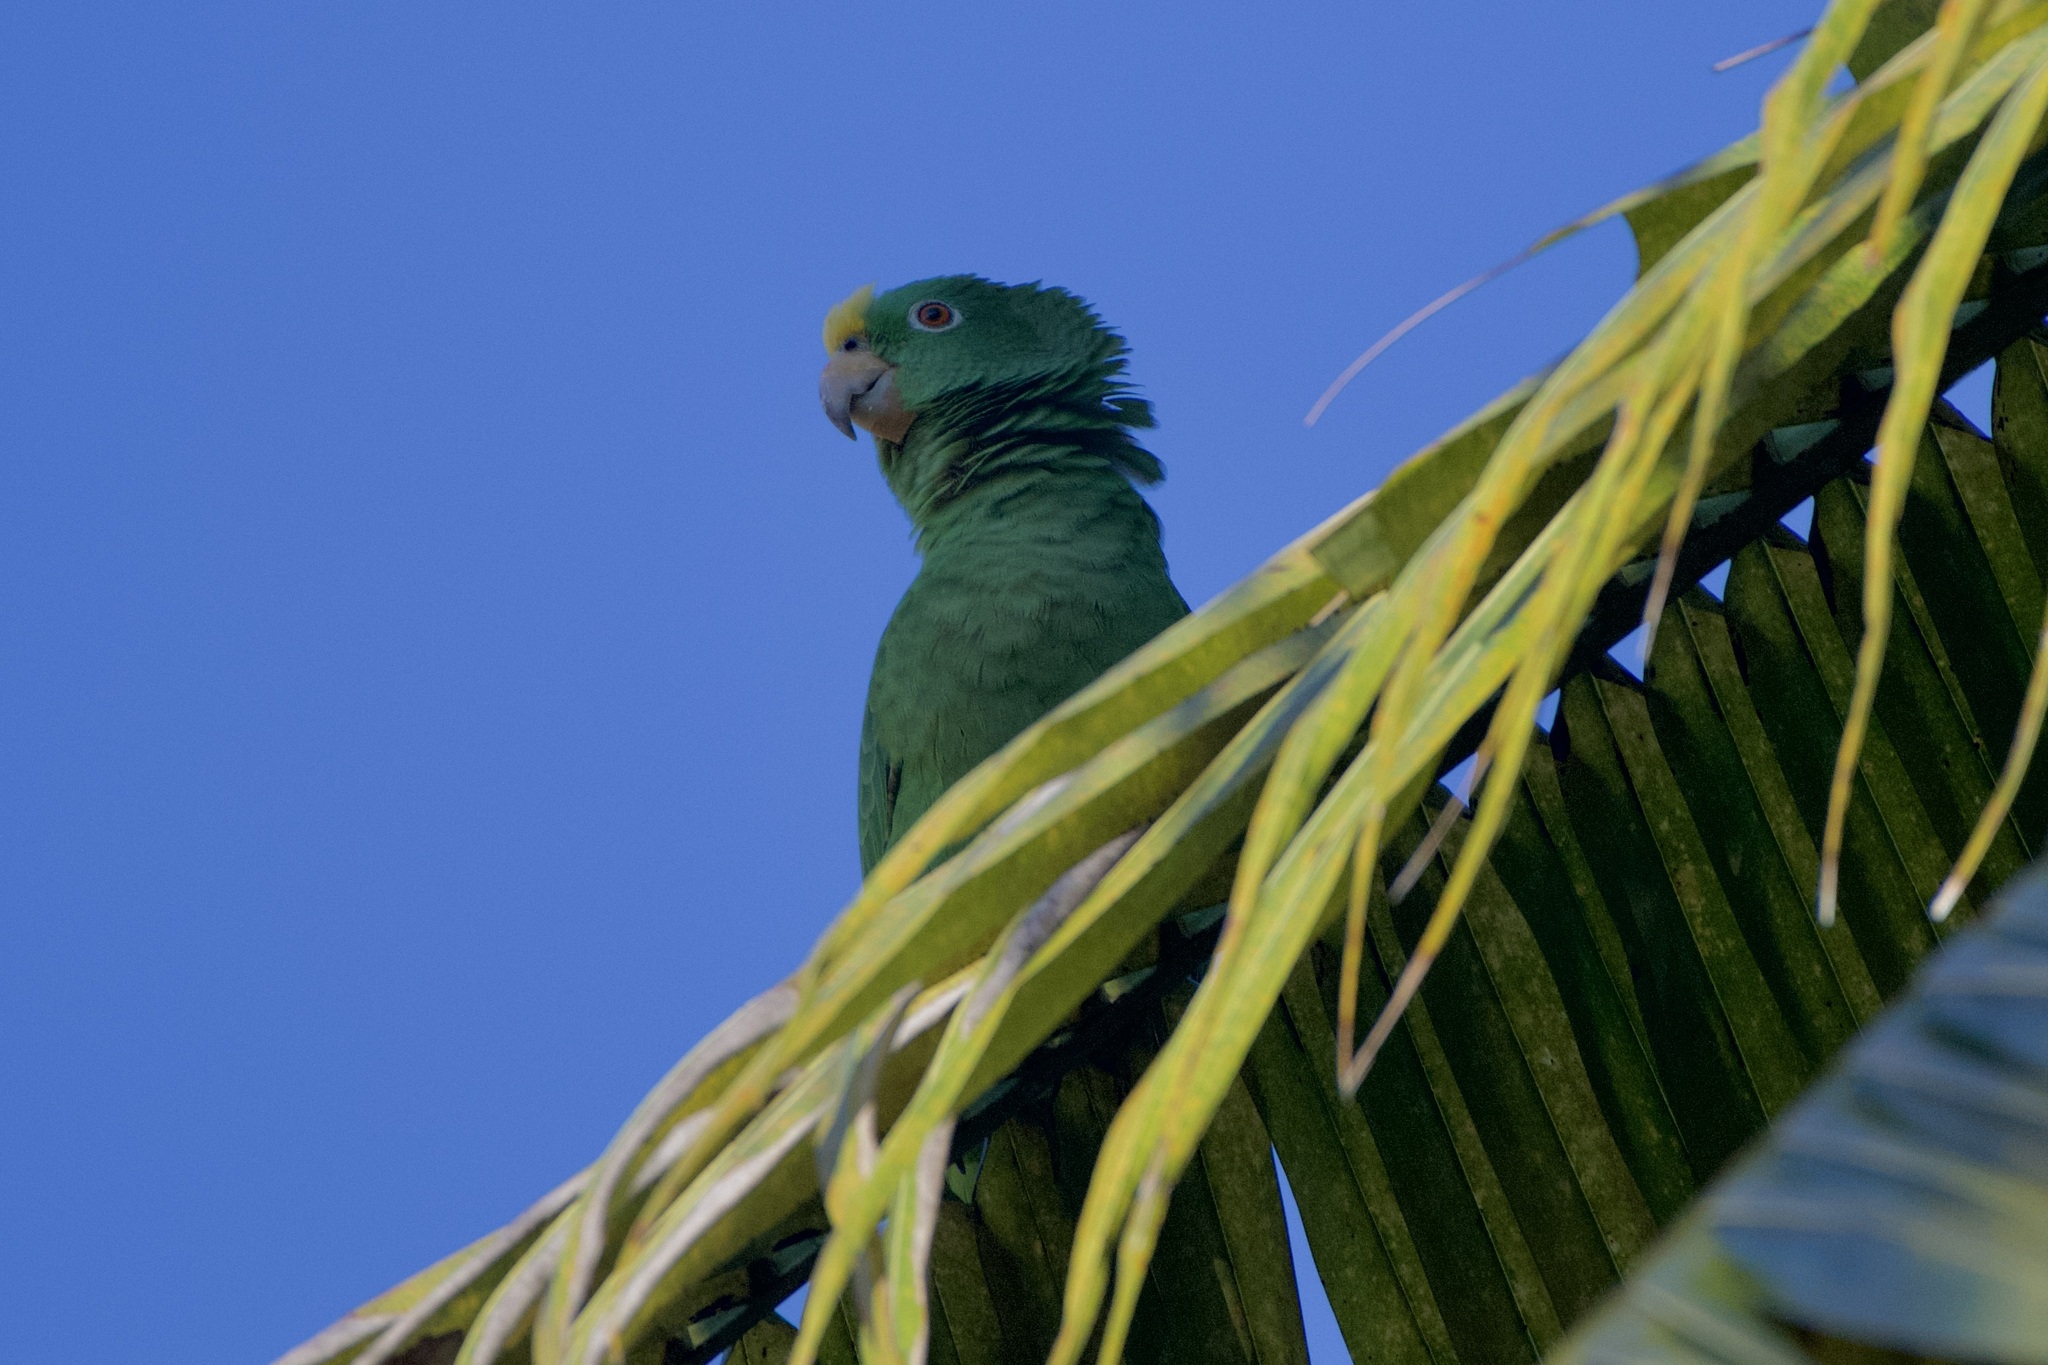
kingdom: Animalia
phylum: Chordata
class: Aves
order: Psittaciformes
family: Psittacidae
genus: Amazona
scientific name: Amazona ochrocephala
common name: Yellow-crowned amazon
